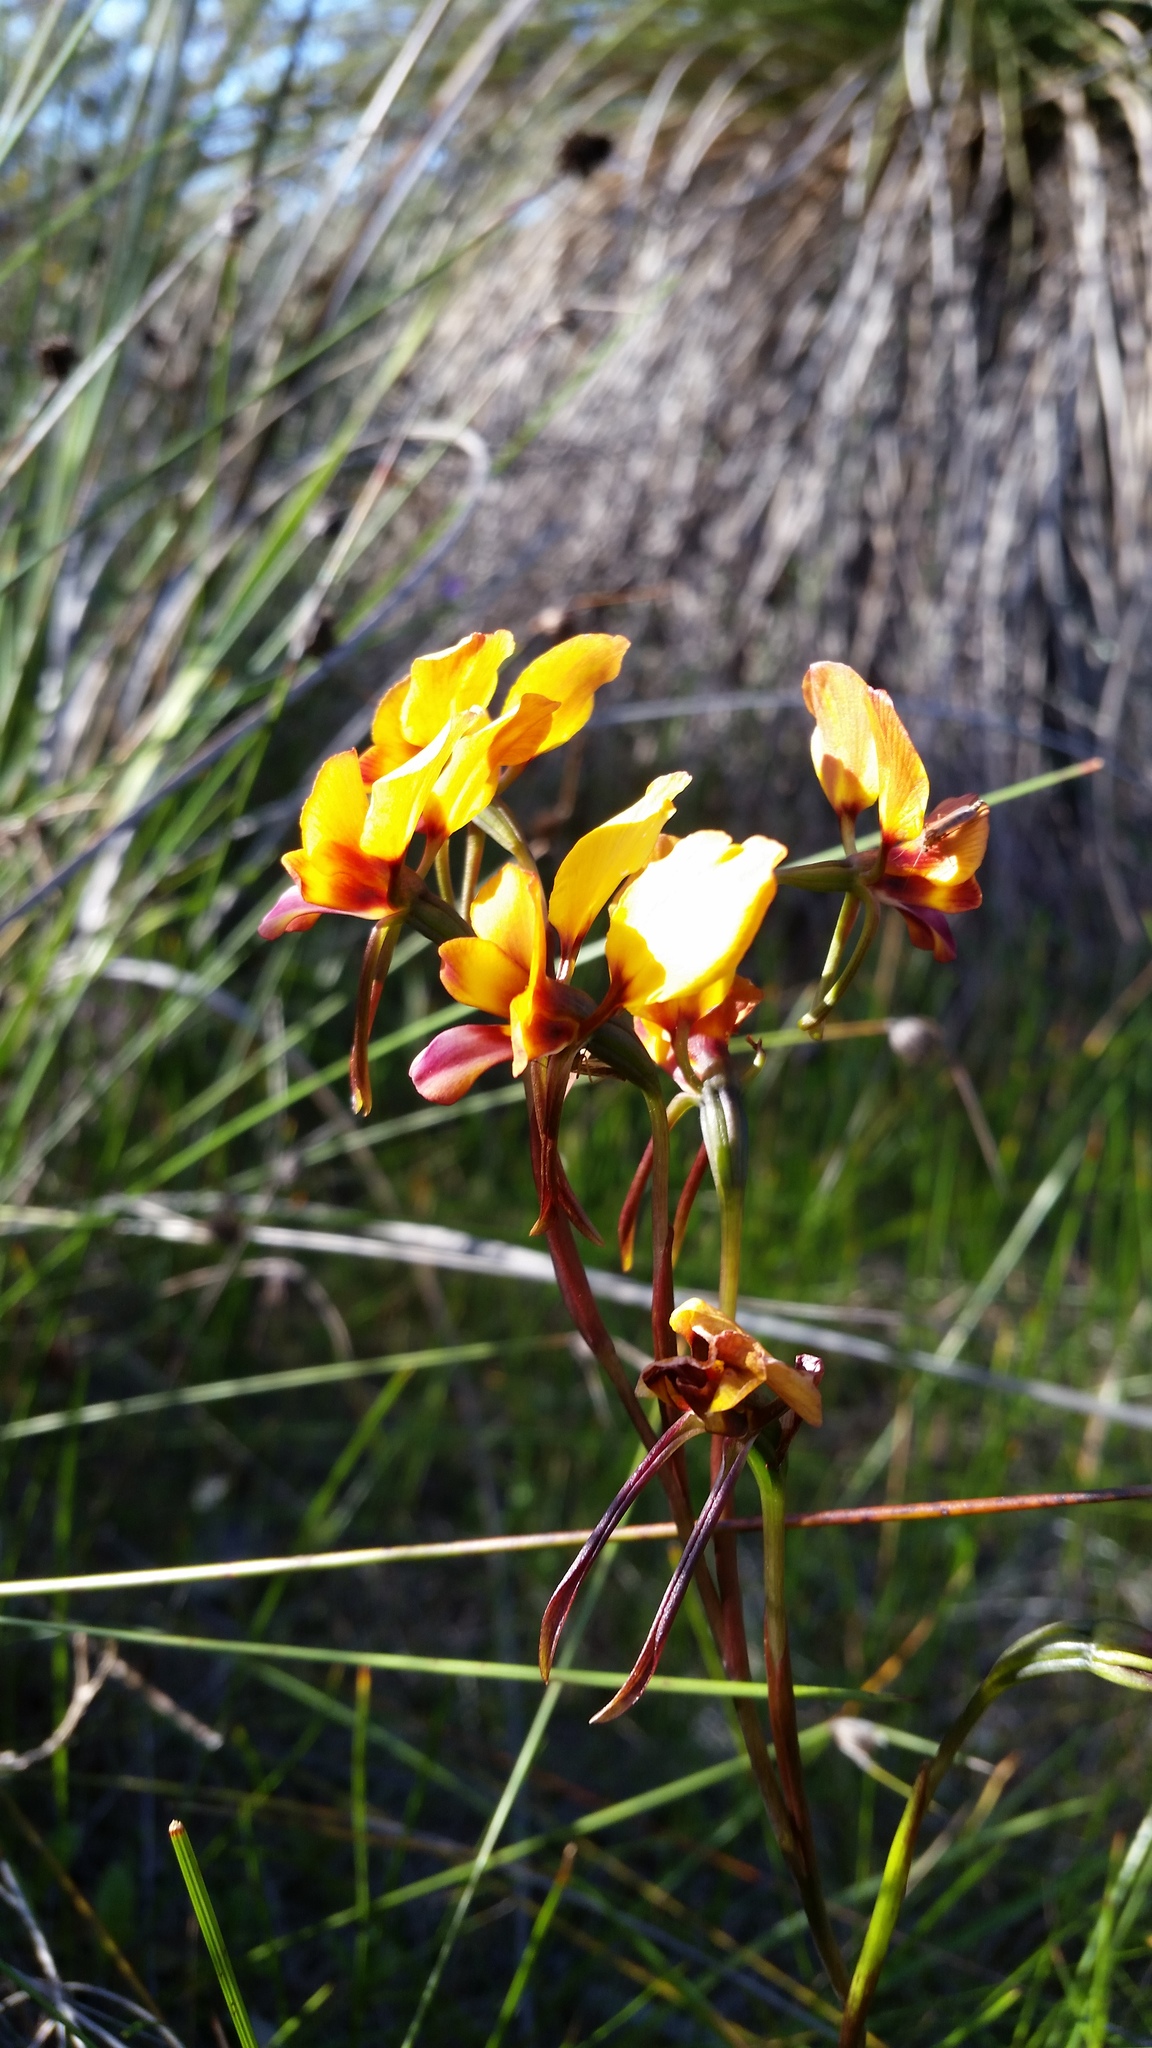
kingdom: Plantae
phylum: Tracheophyta
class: Liliopsida
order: Asparagales
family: Orchidaceae
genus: Diuris
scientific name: Diuris magnifica
